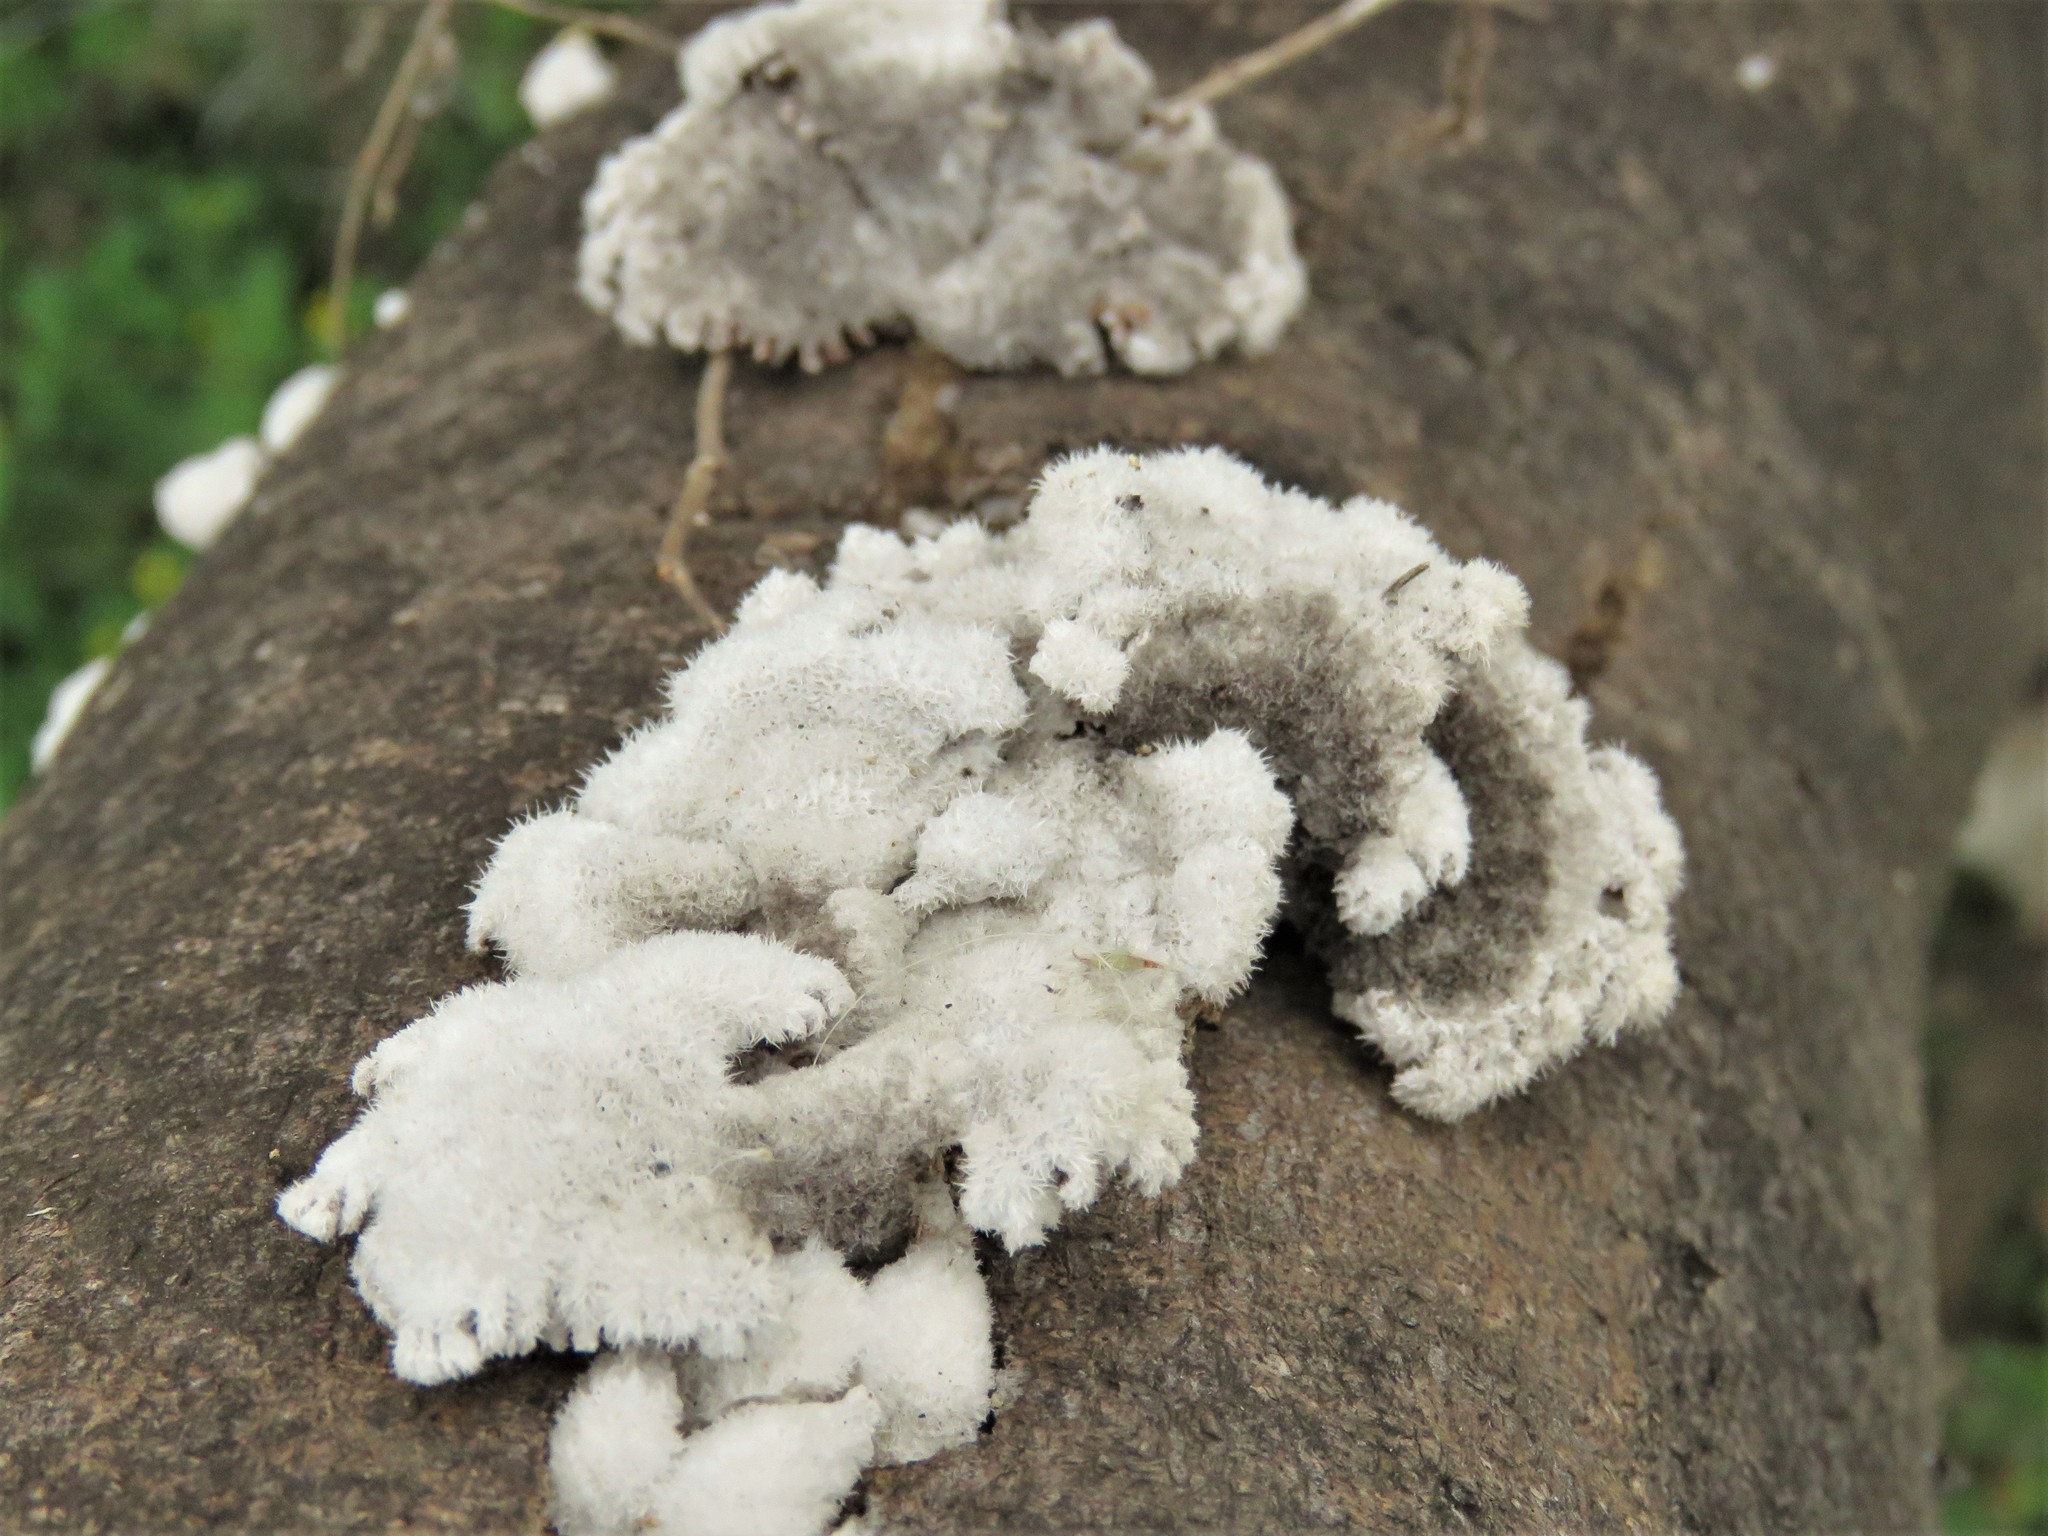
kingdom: Fungi
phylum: Basidiomycota
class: Agaricomycetes
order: Agaricales
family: Schizophyllaceae
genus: Schizophyllum
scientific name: Schizophyllum commune
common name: Common porecrust
